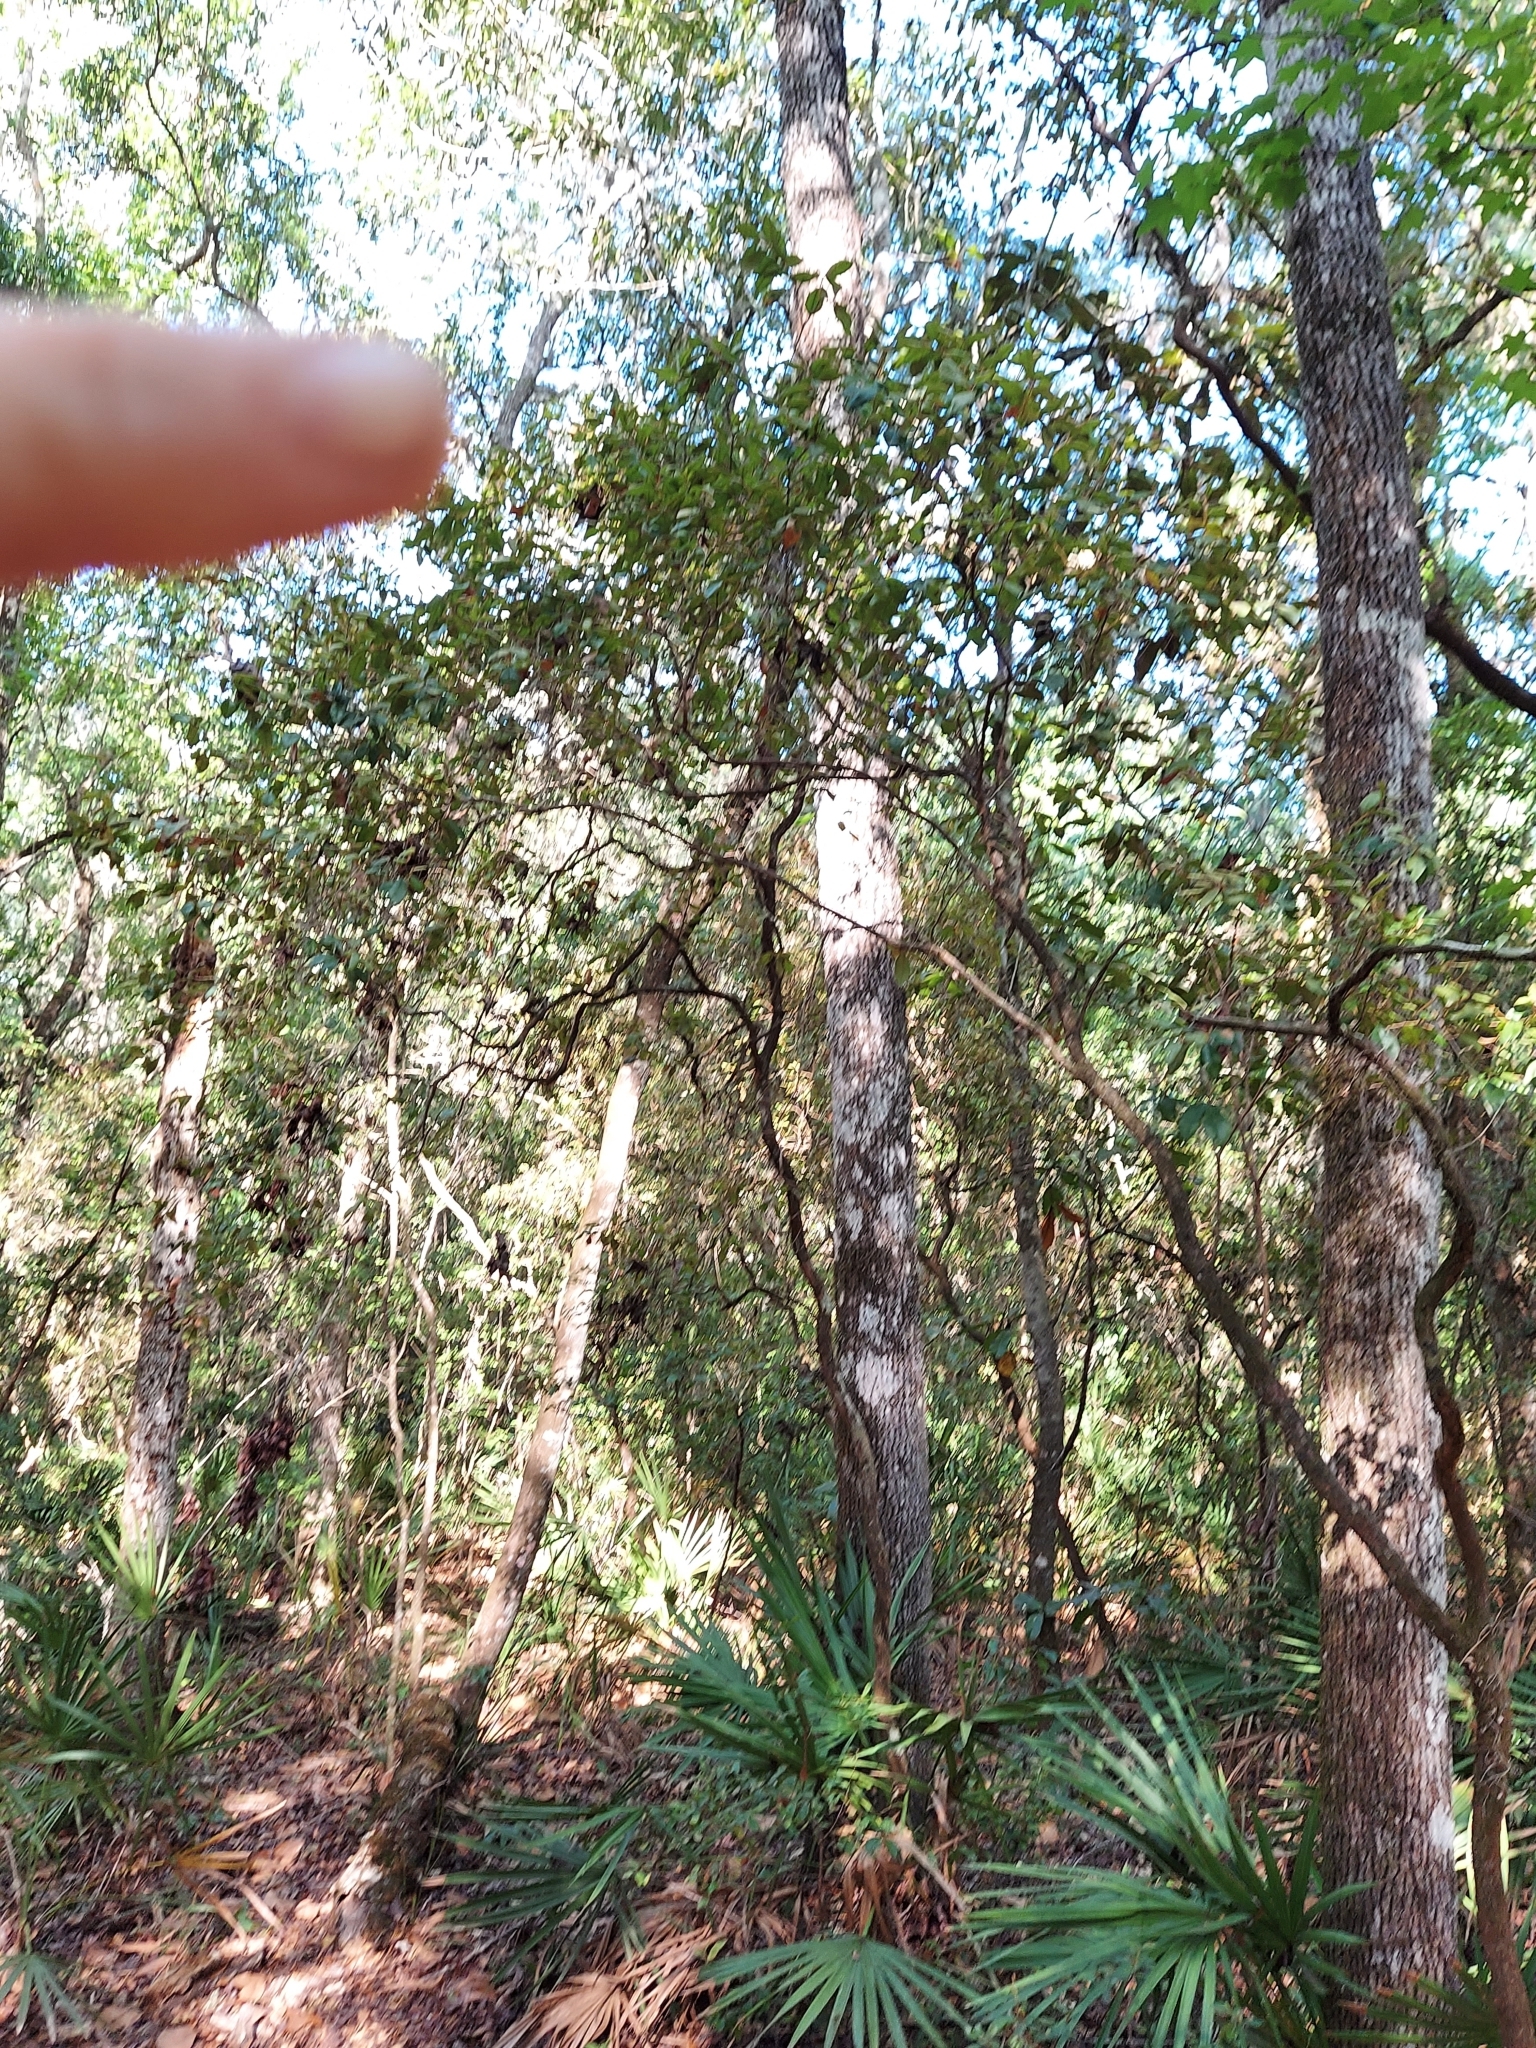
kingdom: Plantae
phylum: Tracheophyta
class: Magnoliopsida
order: Ericales
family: Ericaceae
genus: Lyonia
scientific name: Lyonia ferruginea
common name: Rusty lyonia
